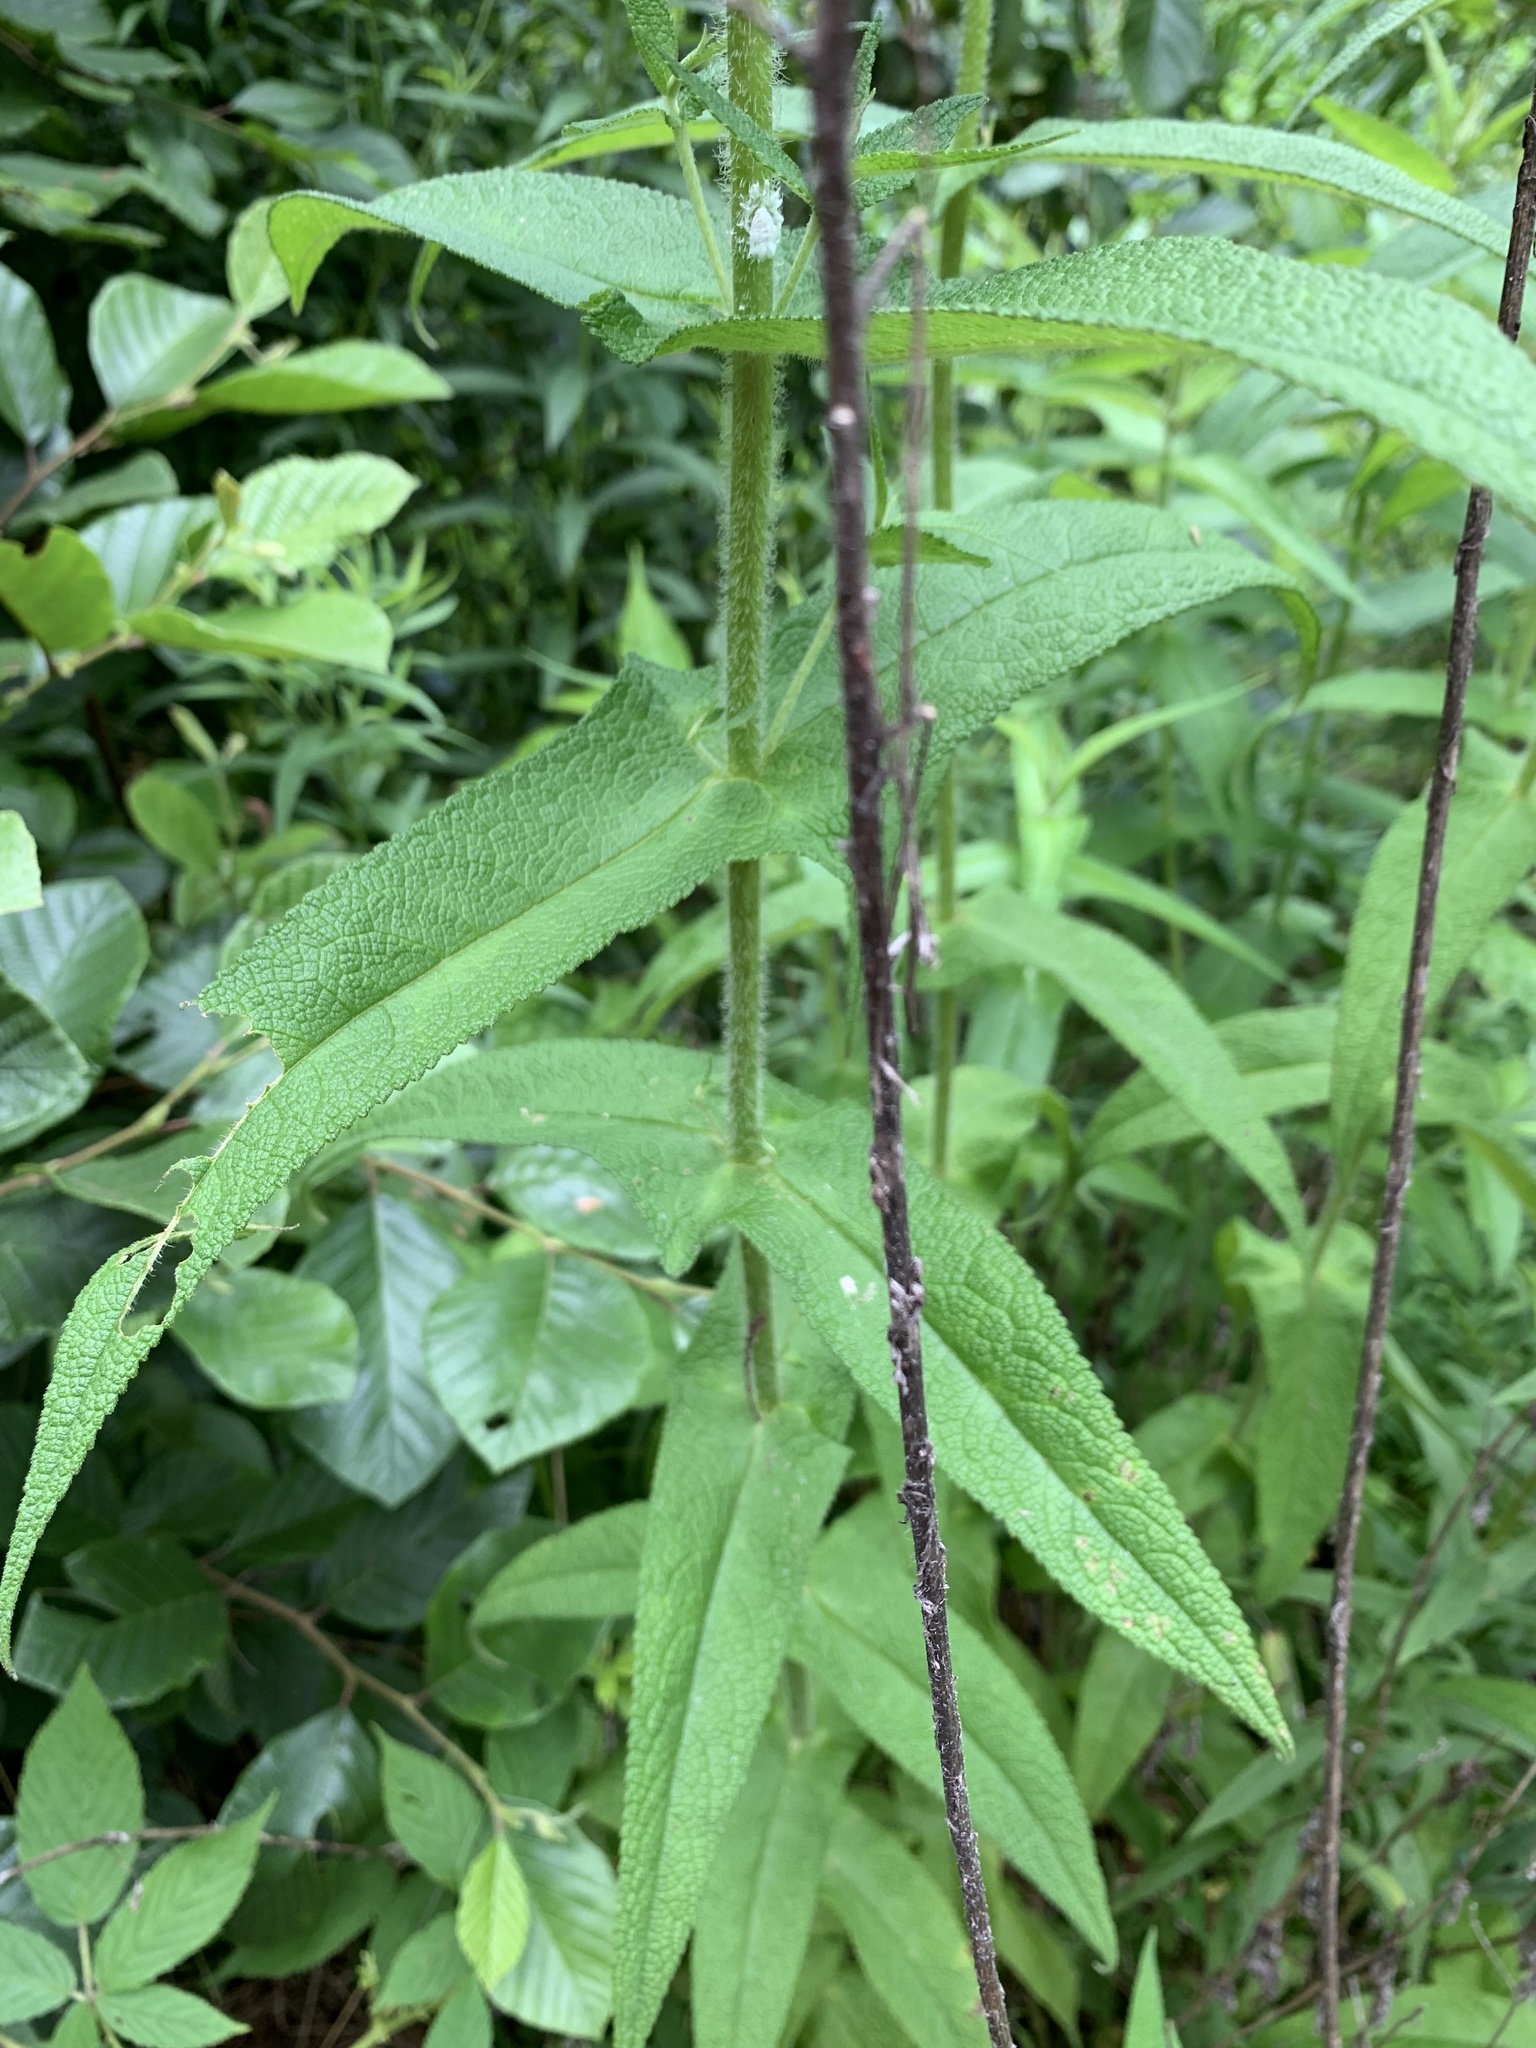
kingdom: Plantae
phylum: Tracheophyta
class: Magnoliopsida
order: Asterales
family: Asteraceae
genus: Eupatorium
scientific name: Eupatorium perfoliatum
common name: Boneset
